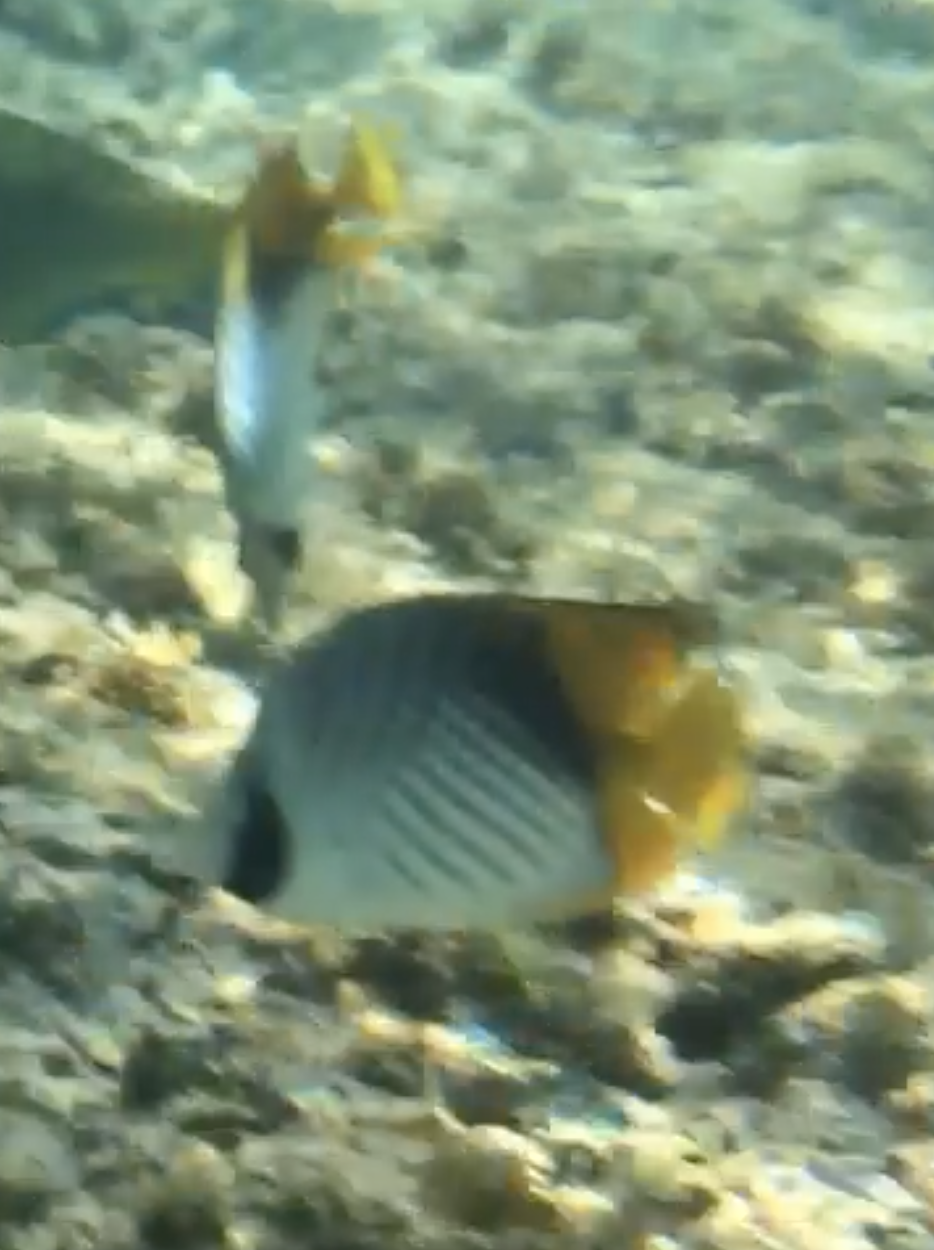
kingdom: Animalia
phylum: Chordata
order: Perciformes
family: Chaetodontidae
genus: Chaetodon
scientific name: Chaetodon auriga
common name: Threadfin butterflyfish
